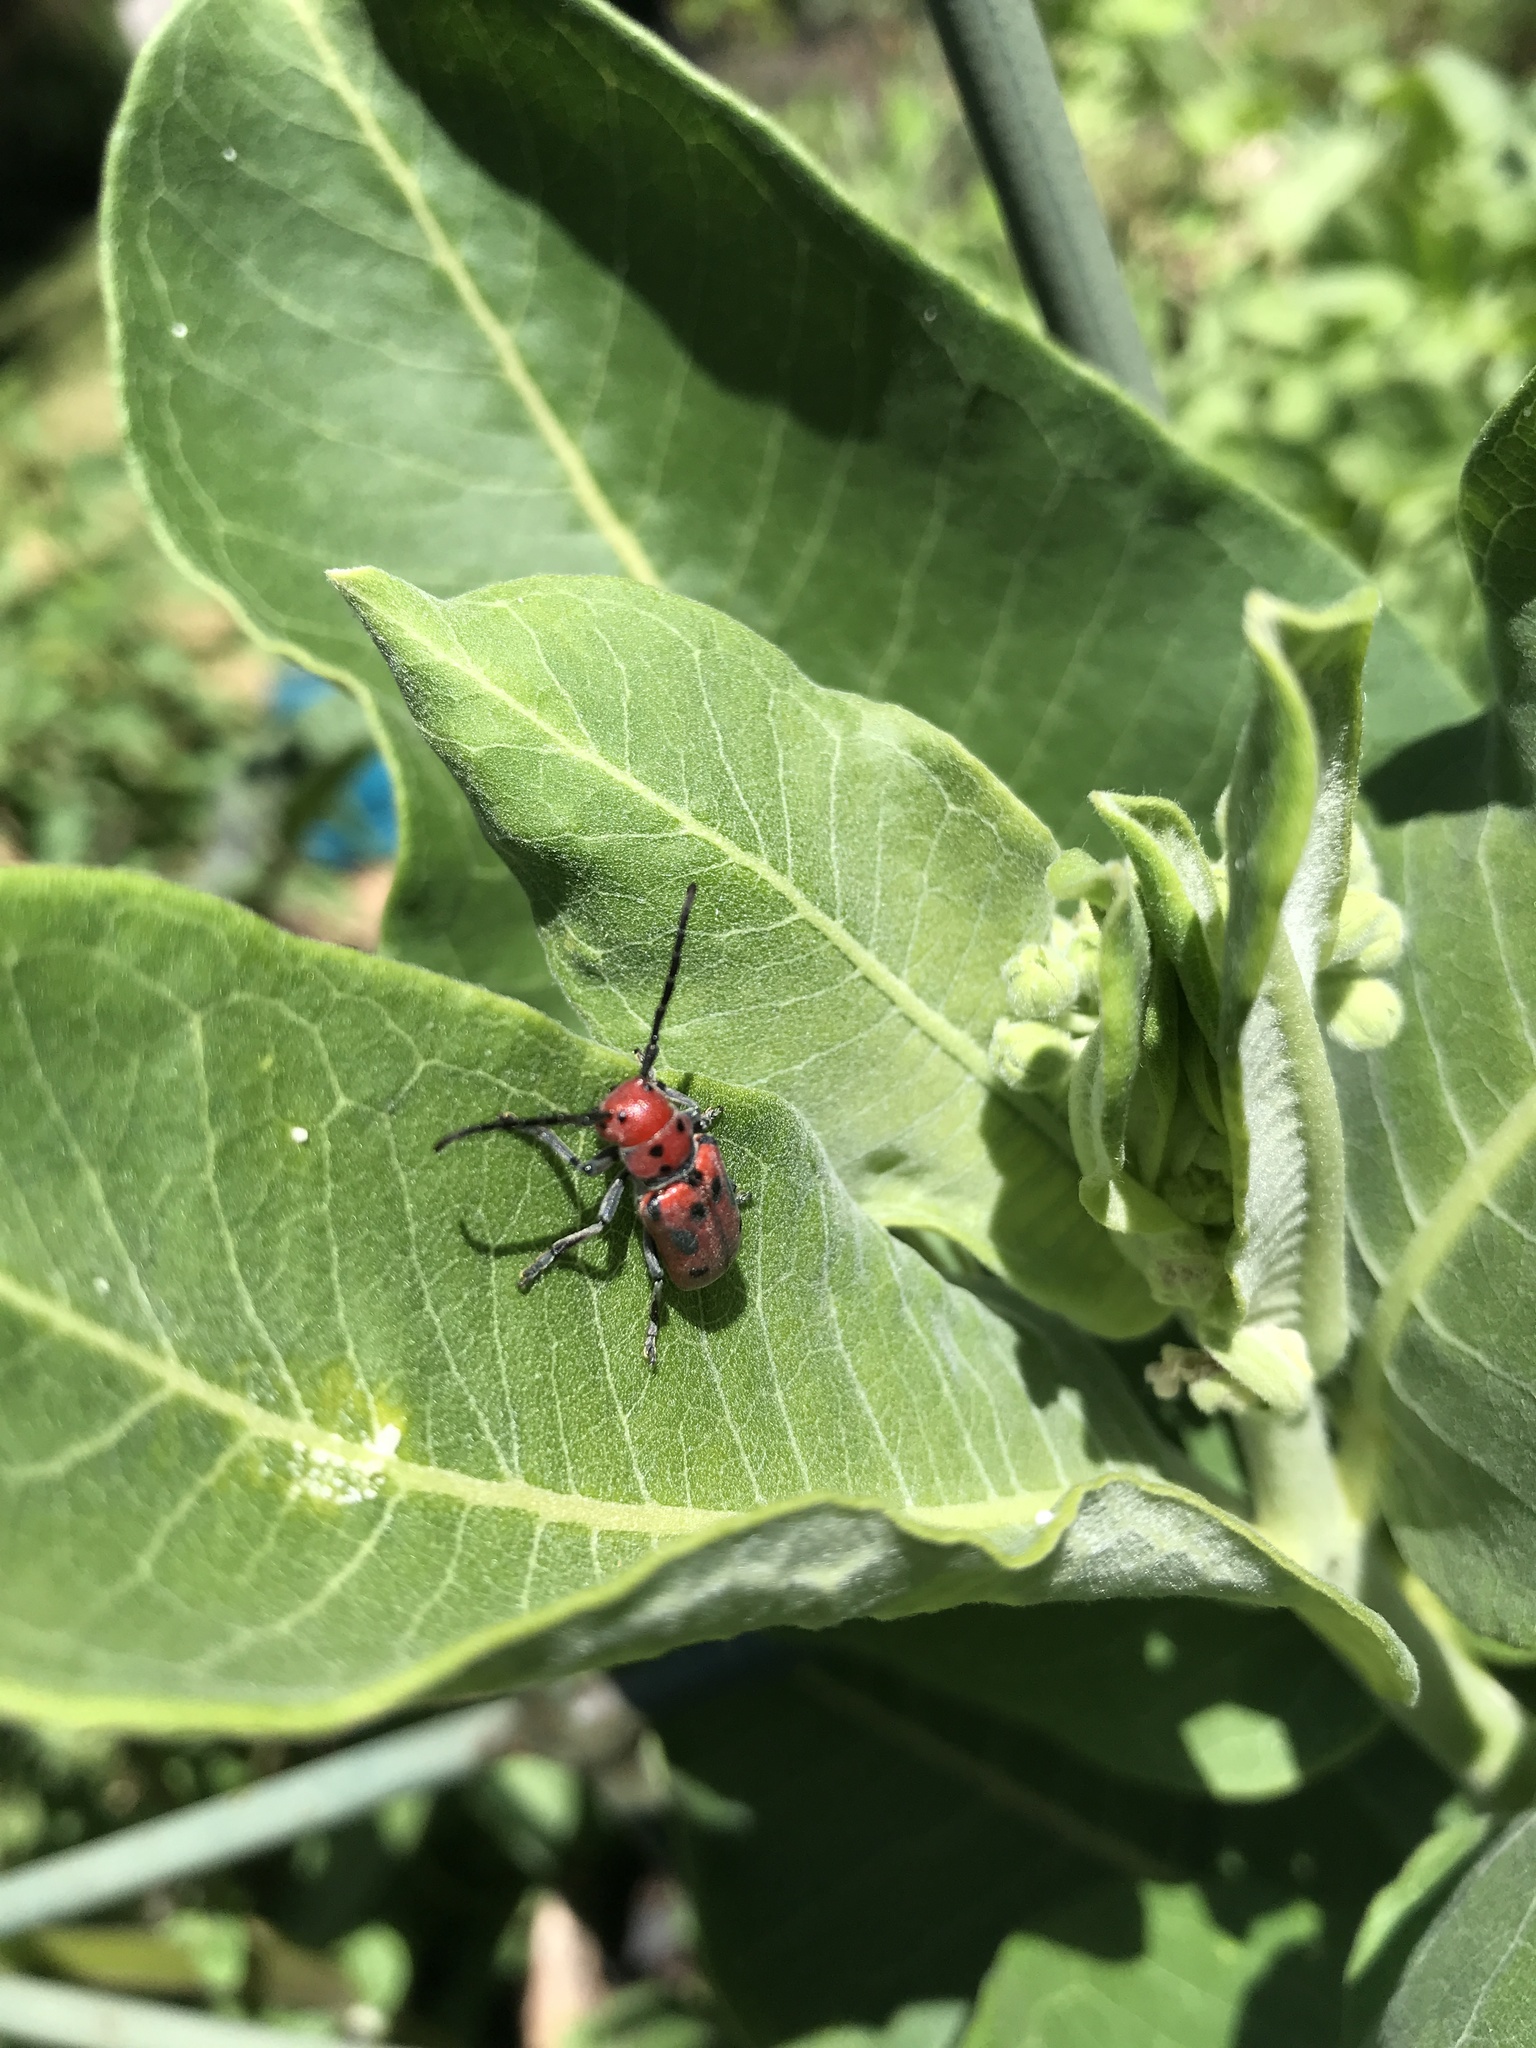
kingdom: Animalia
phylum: Arthropoda
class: Insecta
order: Coleoptera
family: Cerambycidae
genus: Tetraopes
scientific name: Tetraopes tetrophthalmus
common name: Red milkweed beetle
